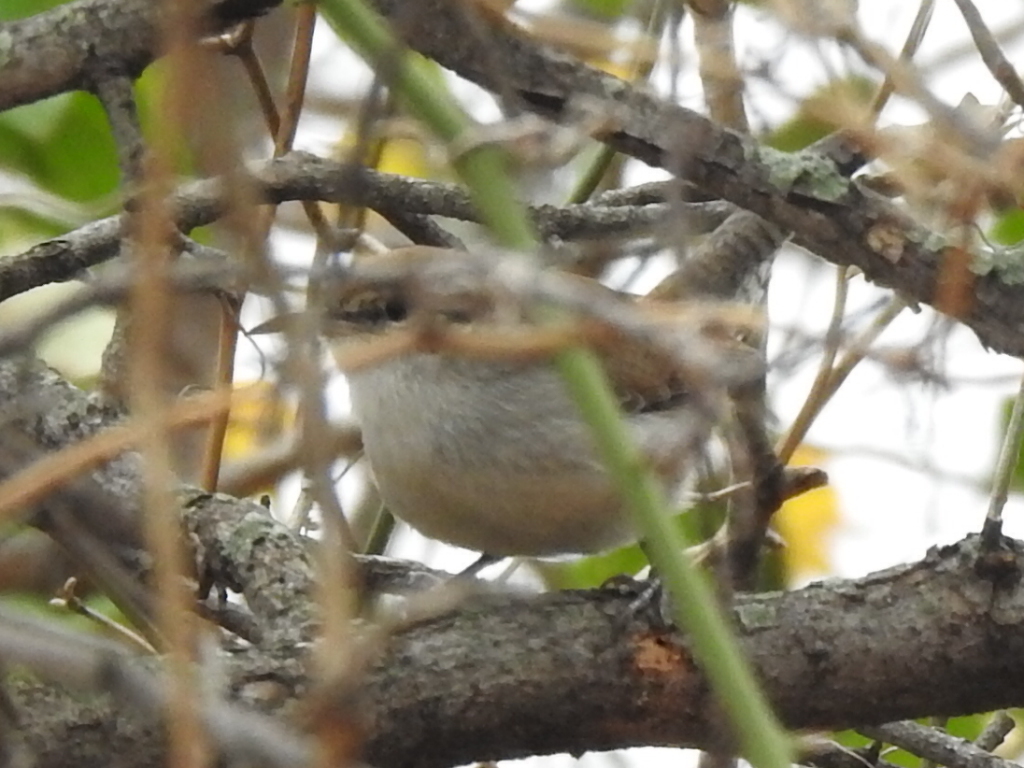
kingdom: Animalia
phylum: Chordata
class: Aves
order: Passeriformes
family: Troglodytidae
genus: Thryomanes
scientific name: Thryomanes bewickii
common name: Bewick's wren
